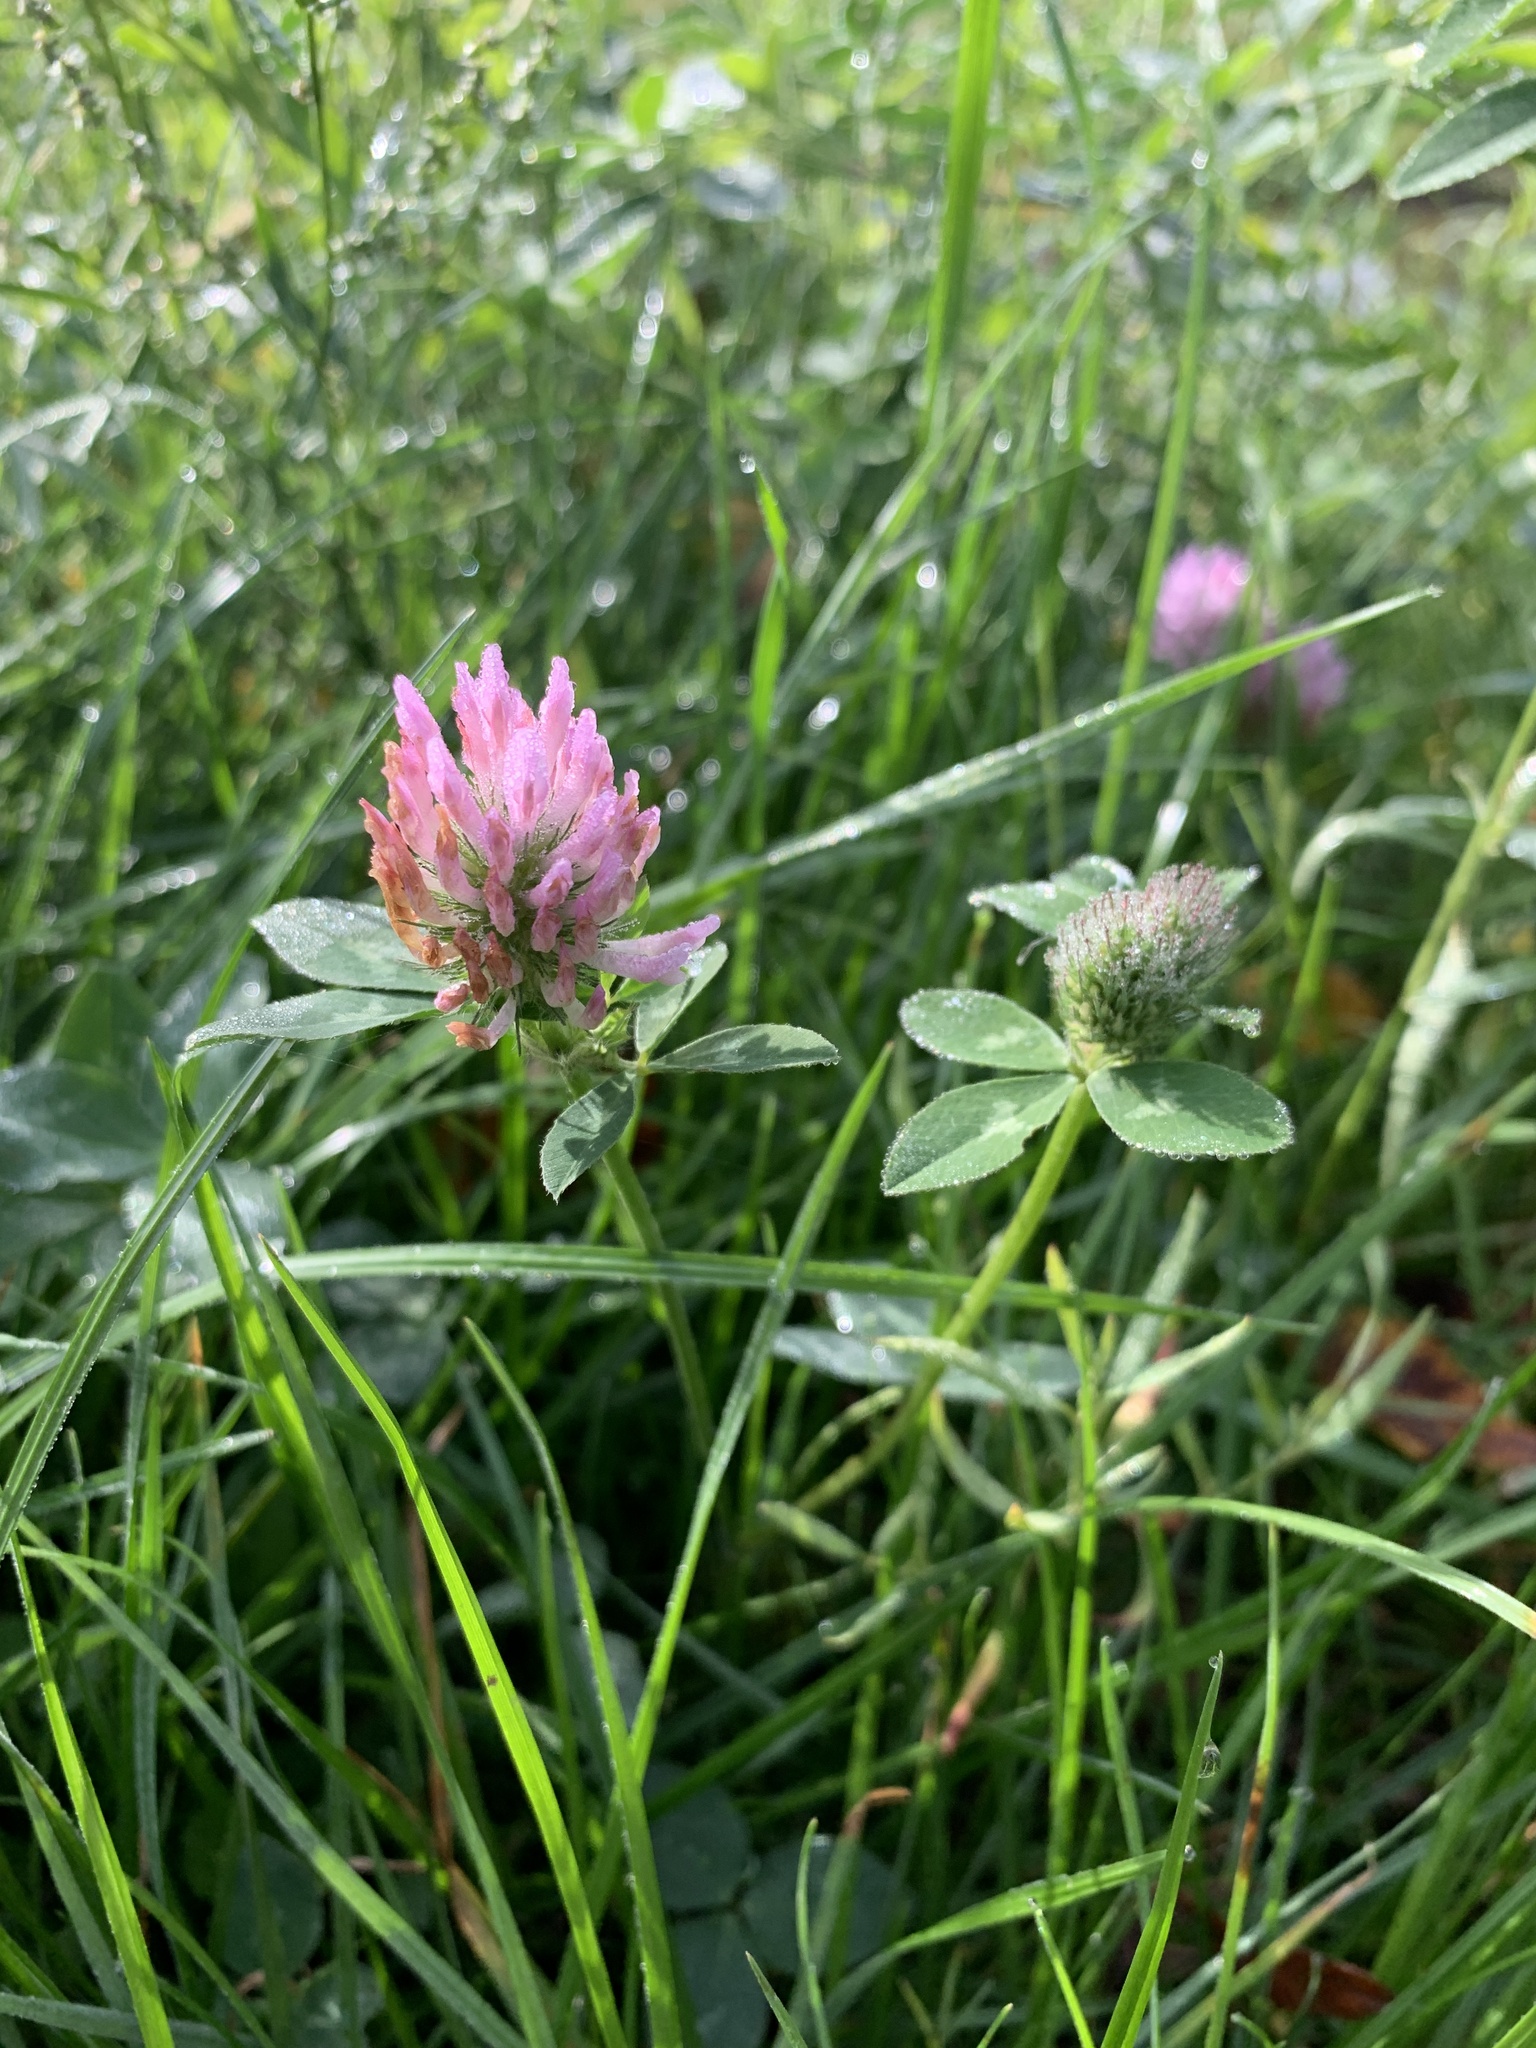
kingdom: Plantae
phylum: Tracheophyta
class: Magnoliopsida
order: Fabales
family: Fabaceae
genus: Trifolium
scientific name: Trifolium pratense
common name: Red clover
